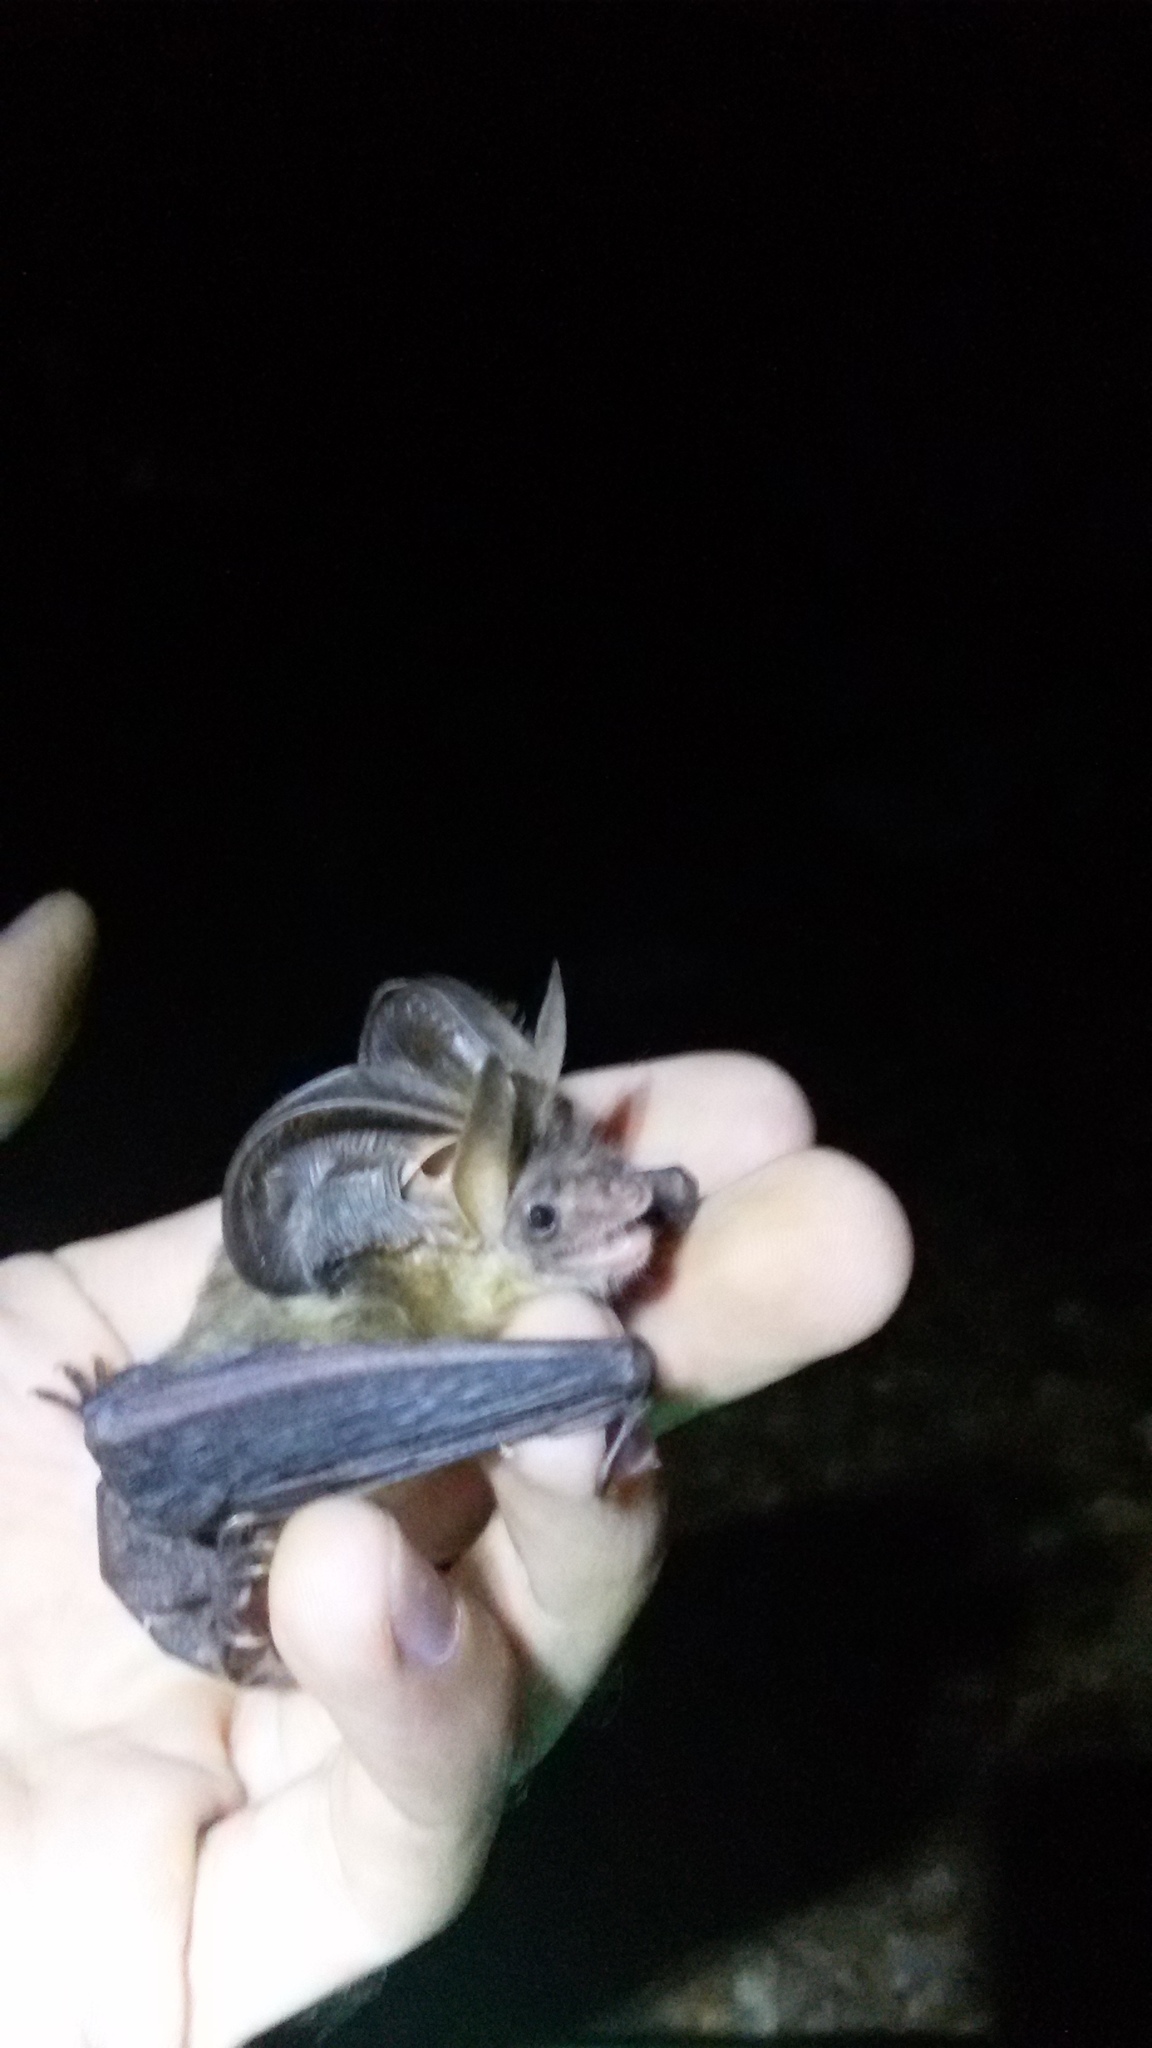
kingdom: Animalia
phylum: Chordata
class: Mammalia
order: Chiroptera
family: Vespertilionidae
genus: Plecotus
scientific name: Plecotus auritus
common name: Brown long-eared bat
